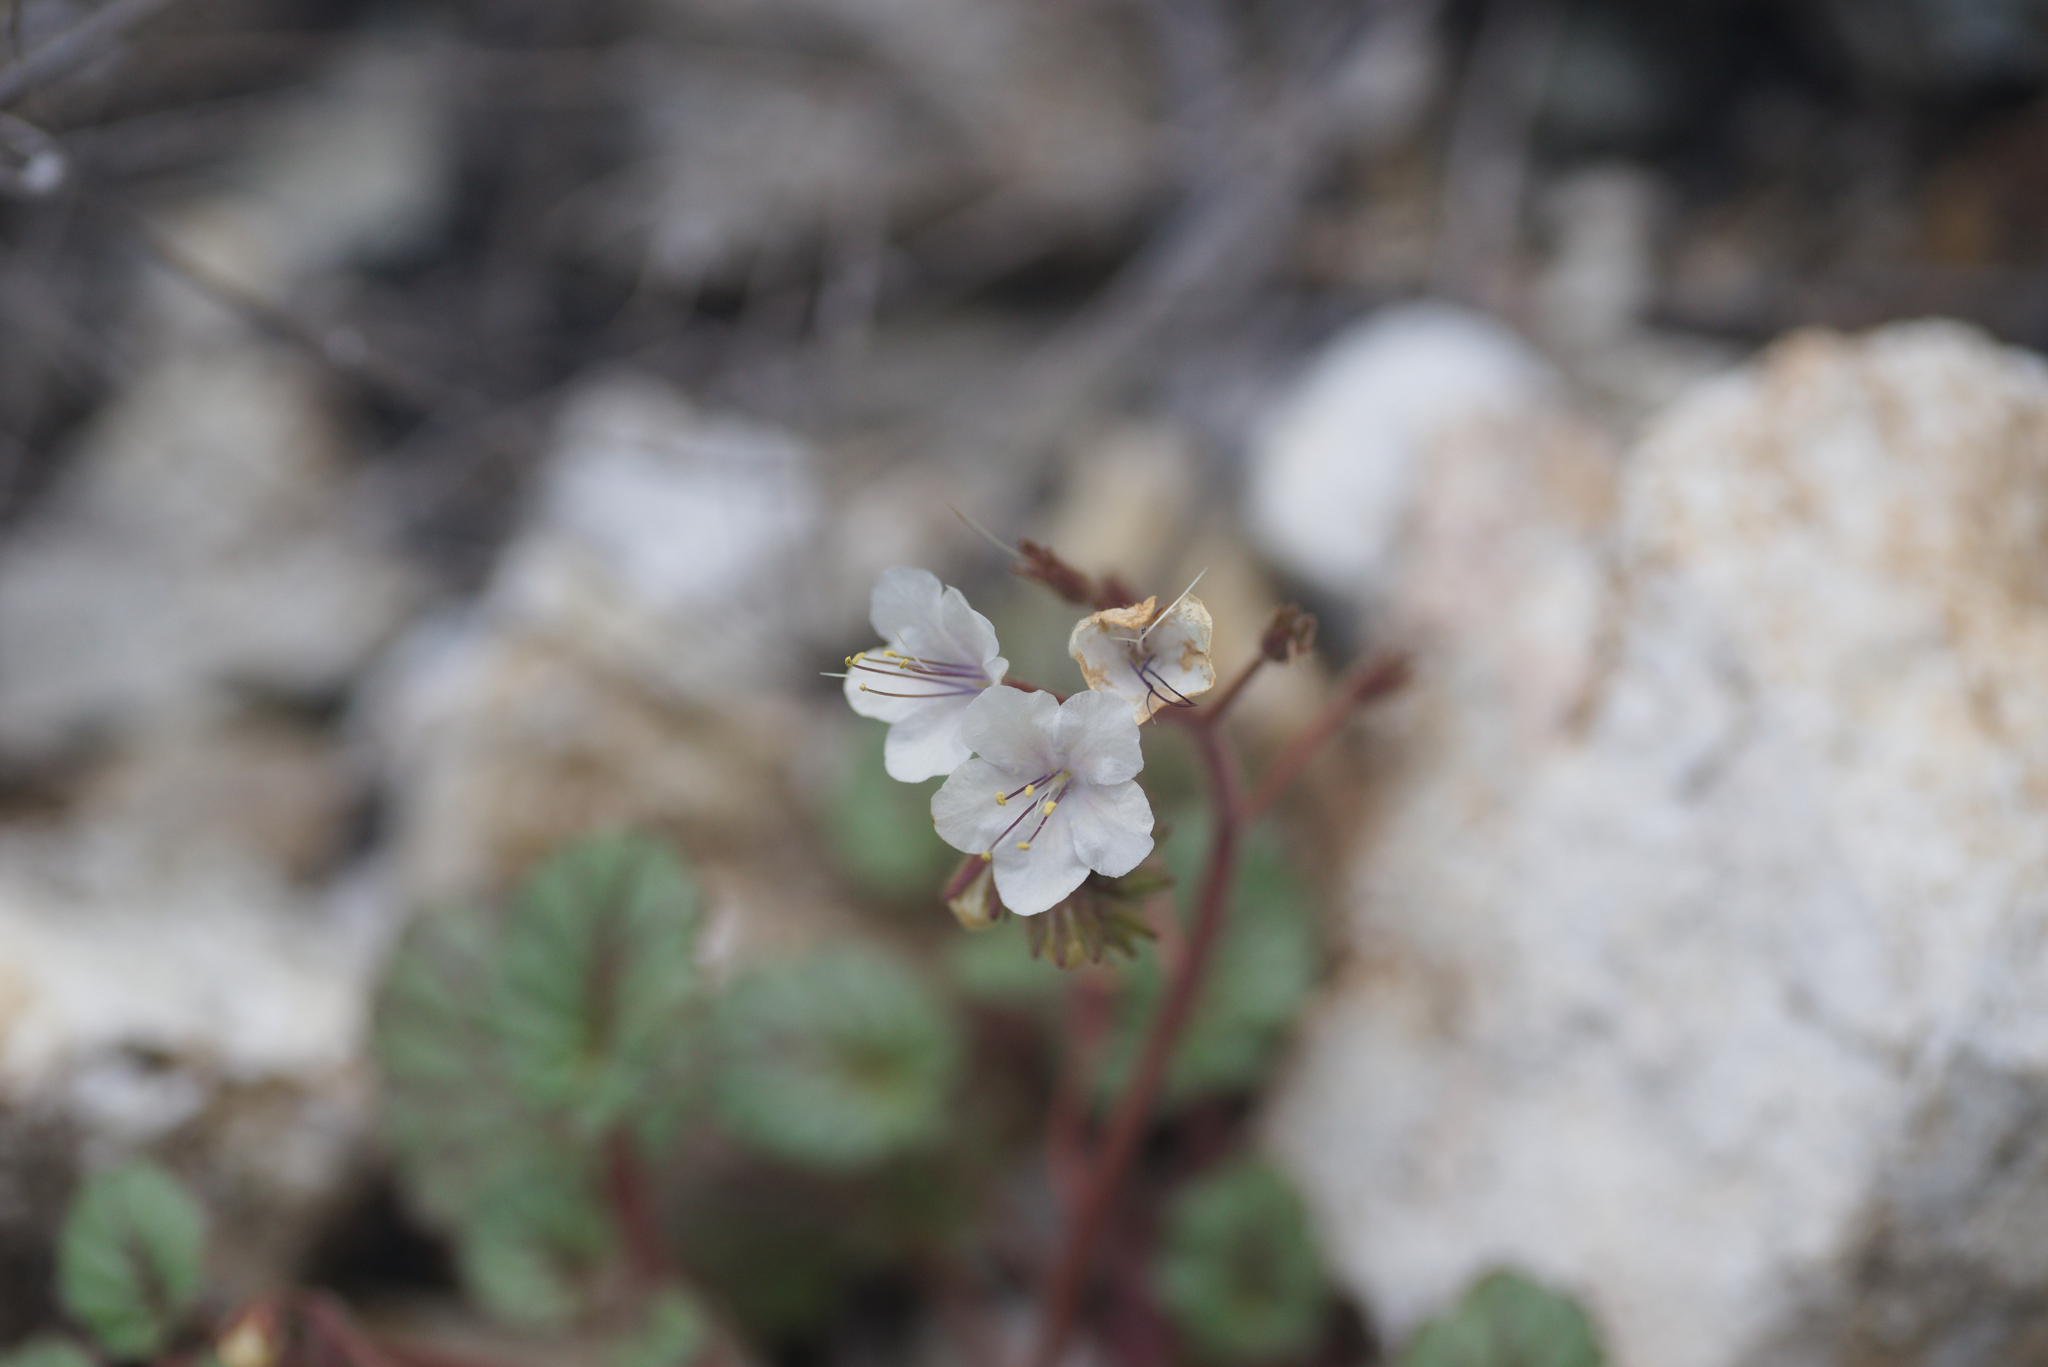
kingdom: Plantae
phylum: Tracheophyta
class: Magnoliopsida
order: Boraginales
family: Hydrophyllaceae
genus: Phacelia
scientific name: Phacelia longipes
